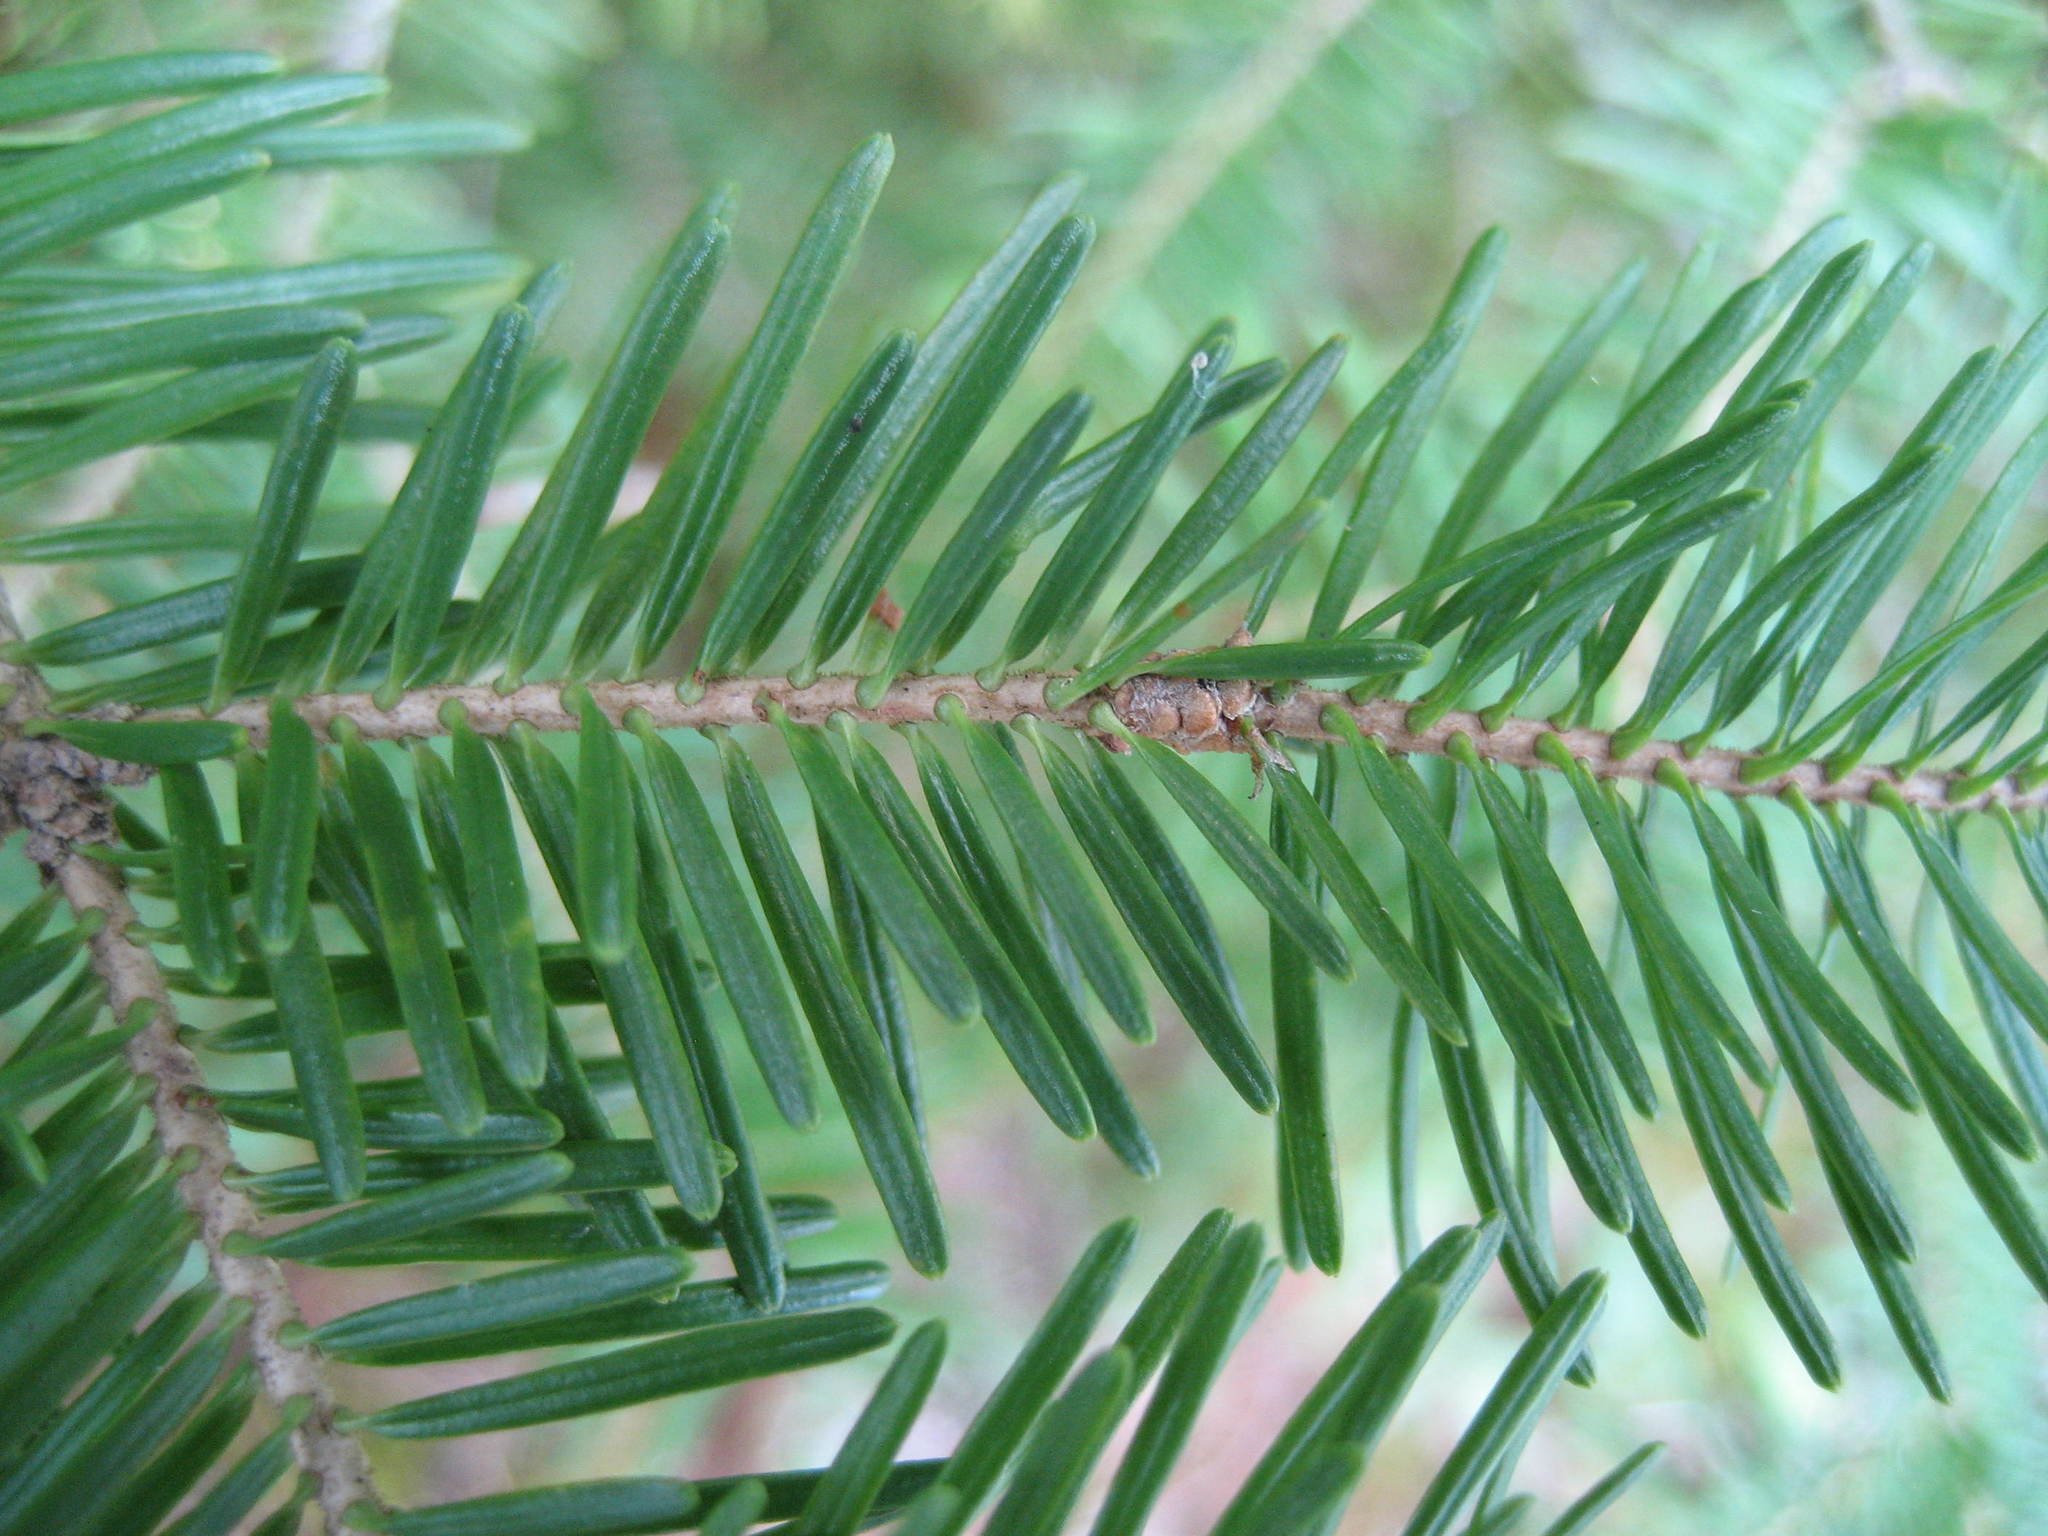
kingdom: Plantae
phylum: Tracheophyta
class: Pinopsida
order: Pinales
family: Pinaceae
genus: Abies
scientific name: Abies balsamea
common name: Balsam fir
